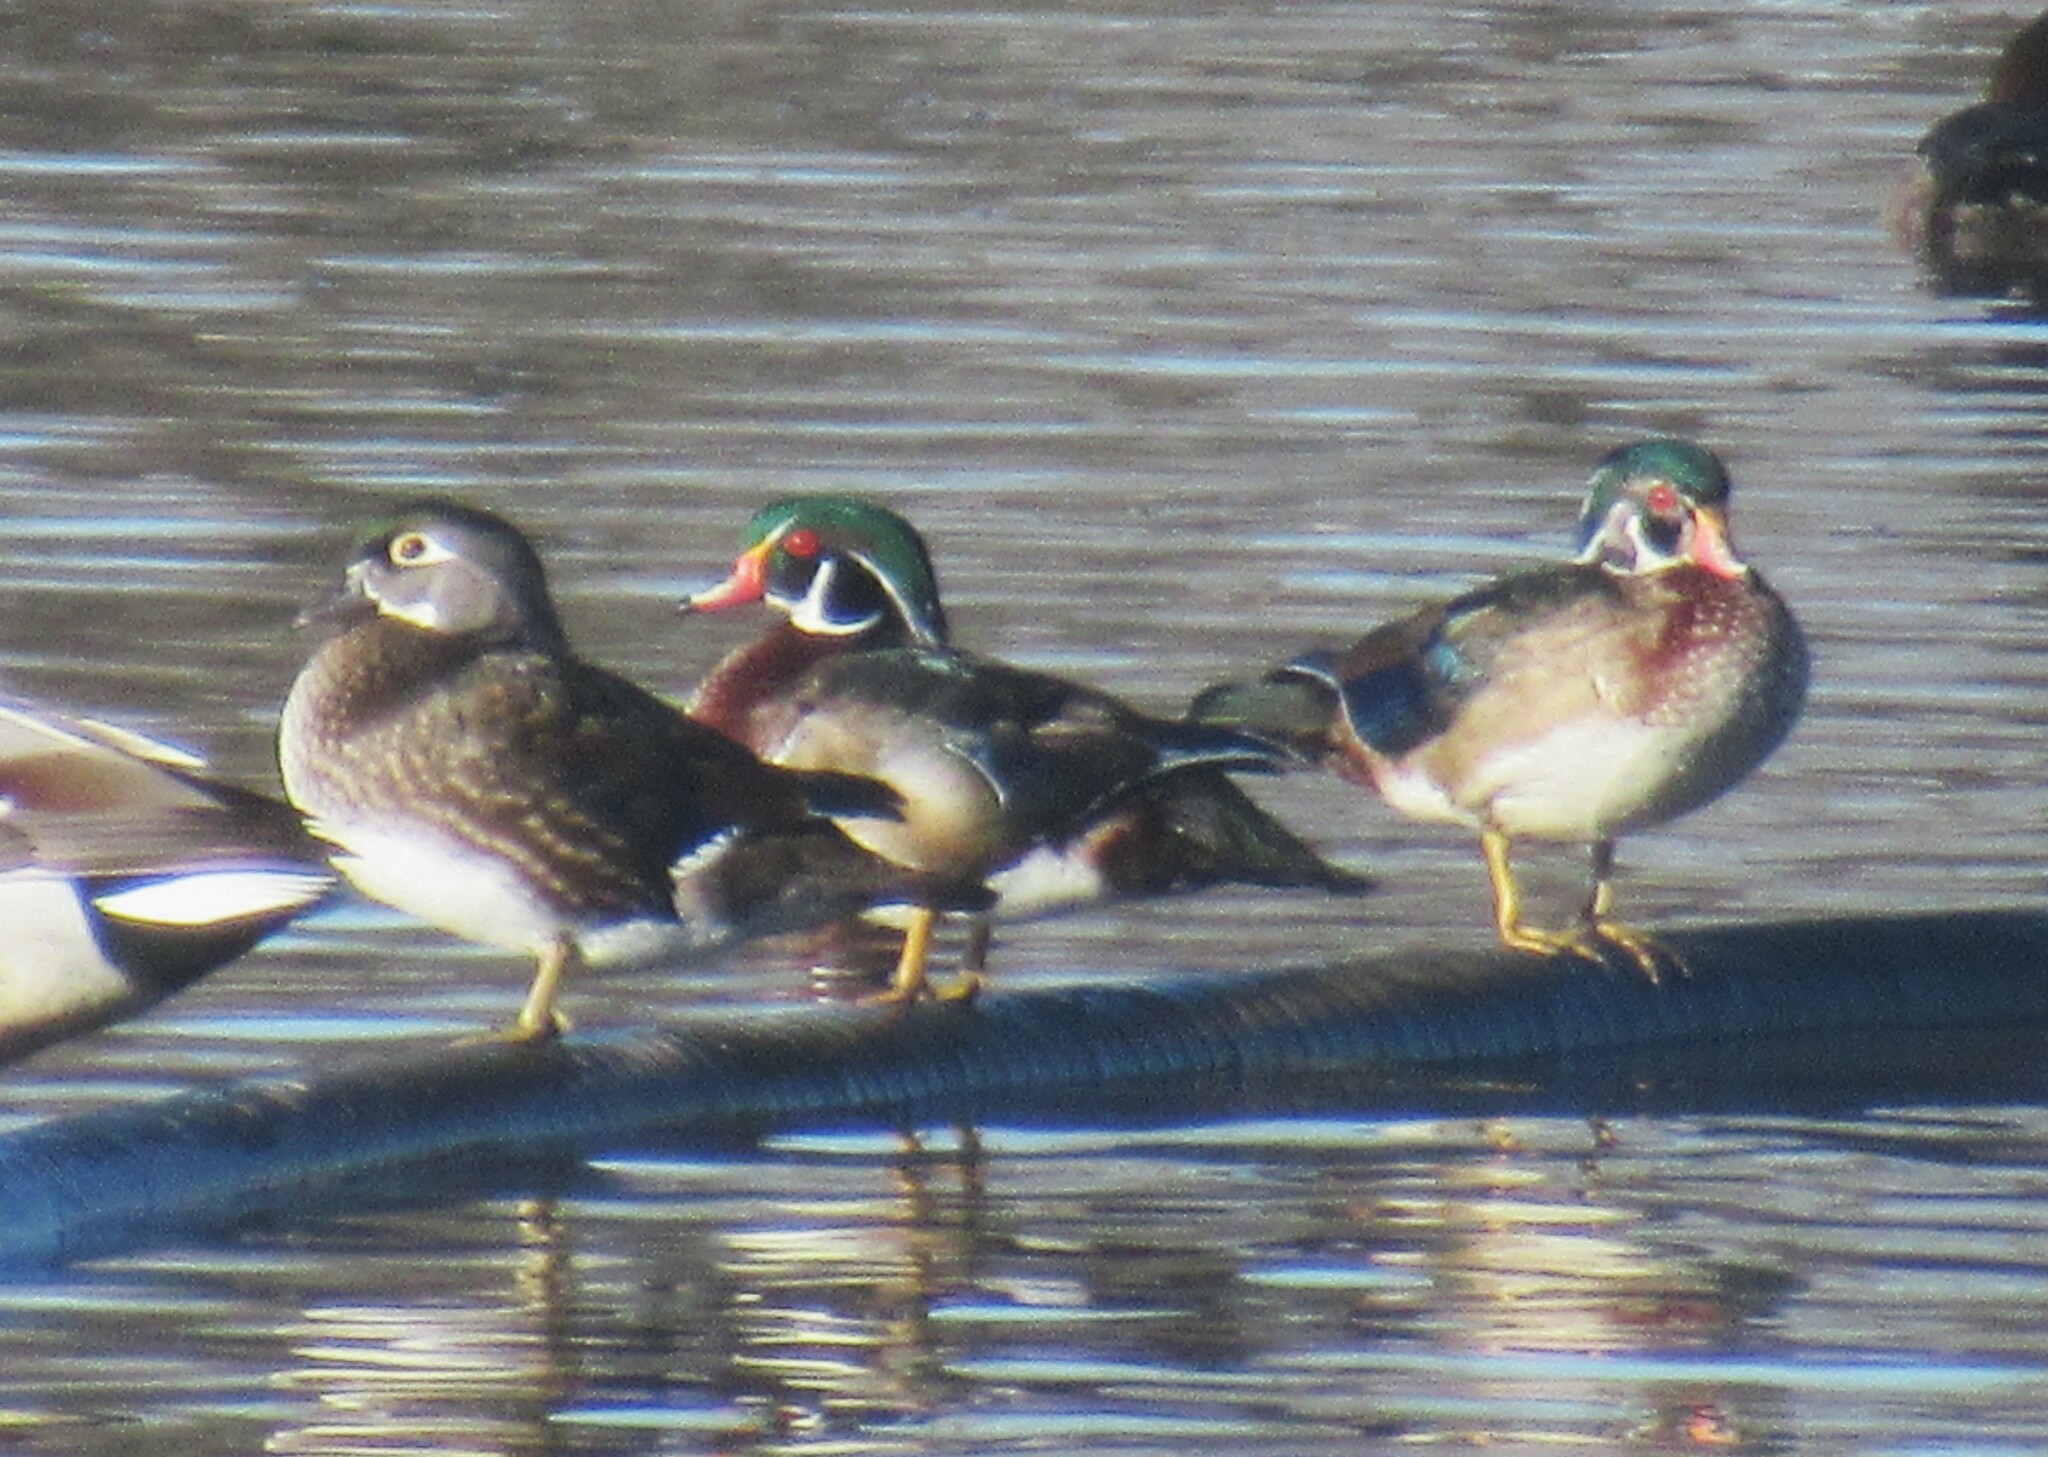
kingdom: Animalia
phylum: Chordata
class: Aves
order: Anseriformes
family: Anatidae
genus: Aix
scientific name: Aix sponsa
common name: Wood duck
